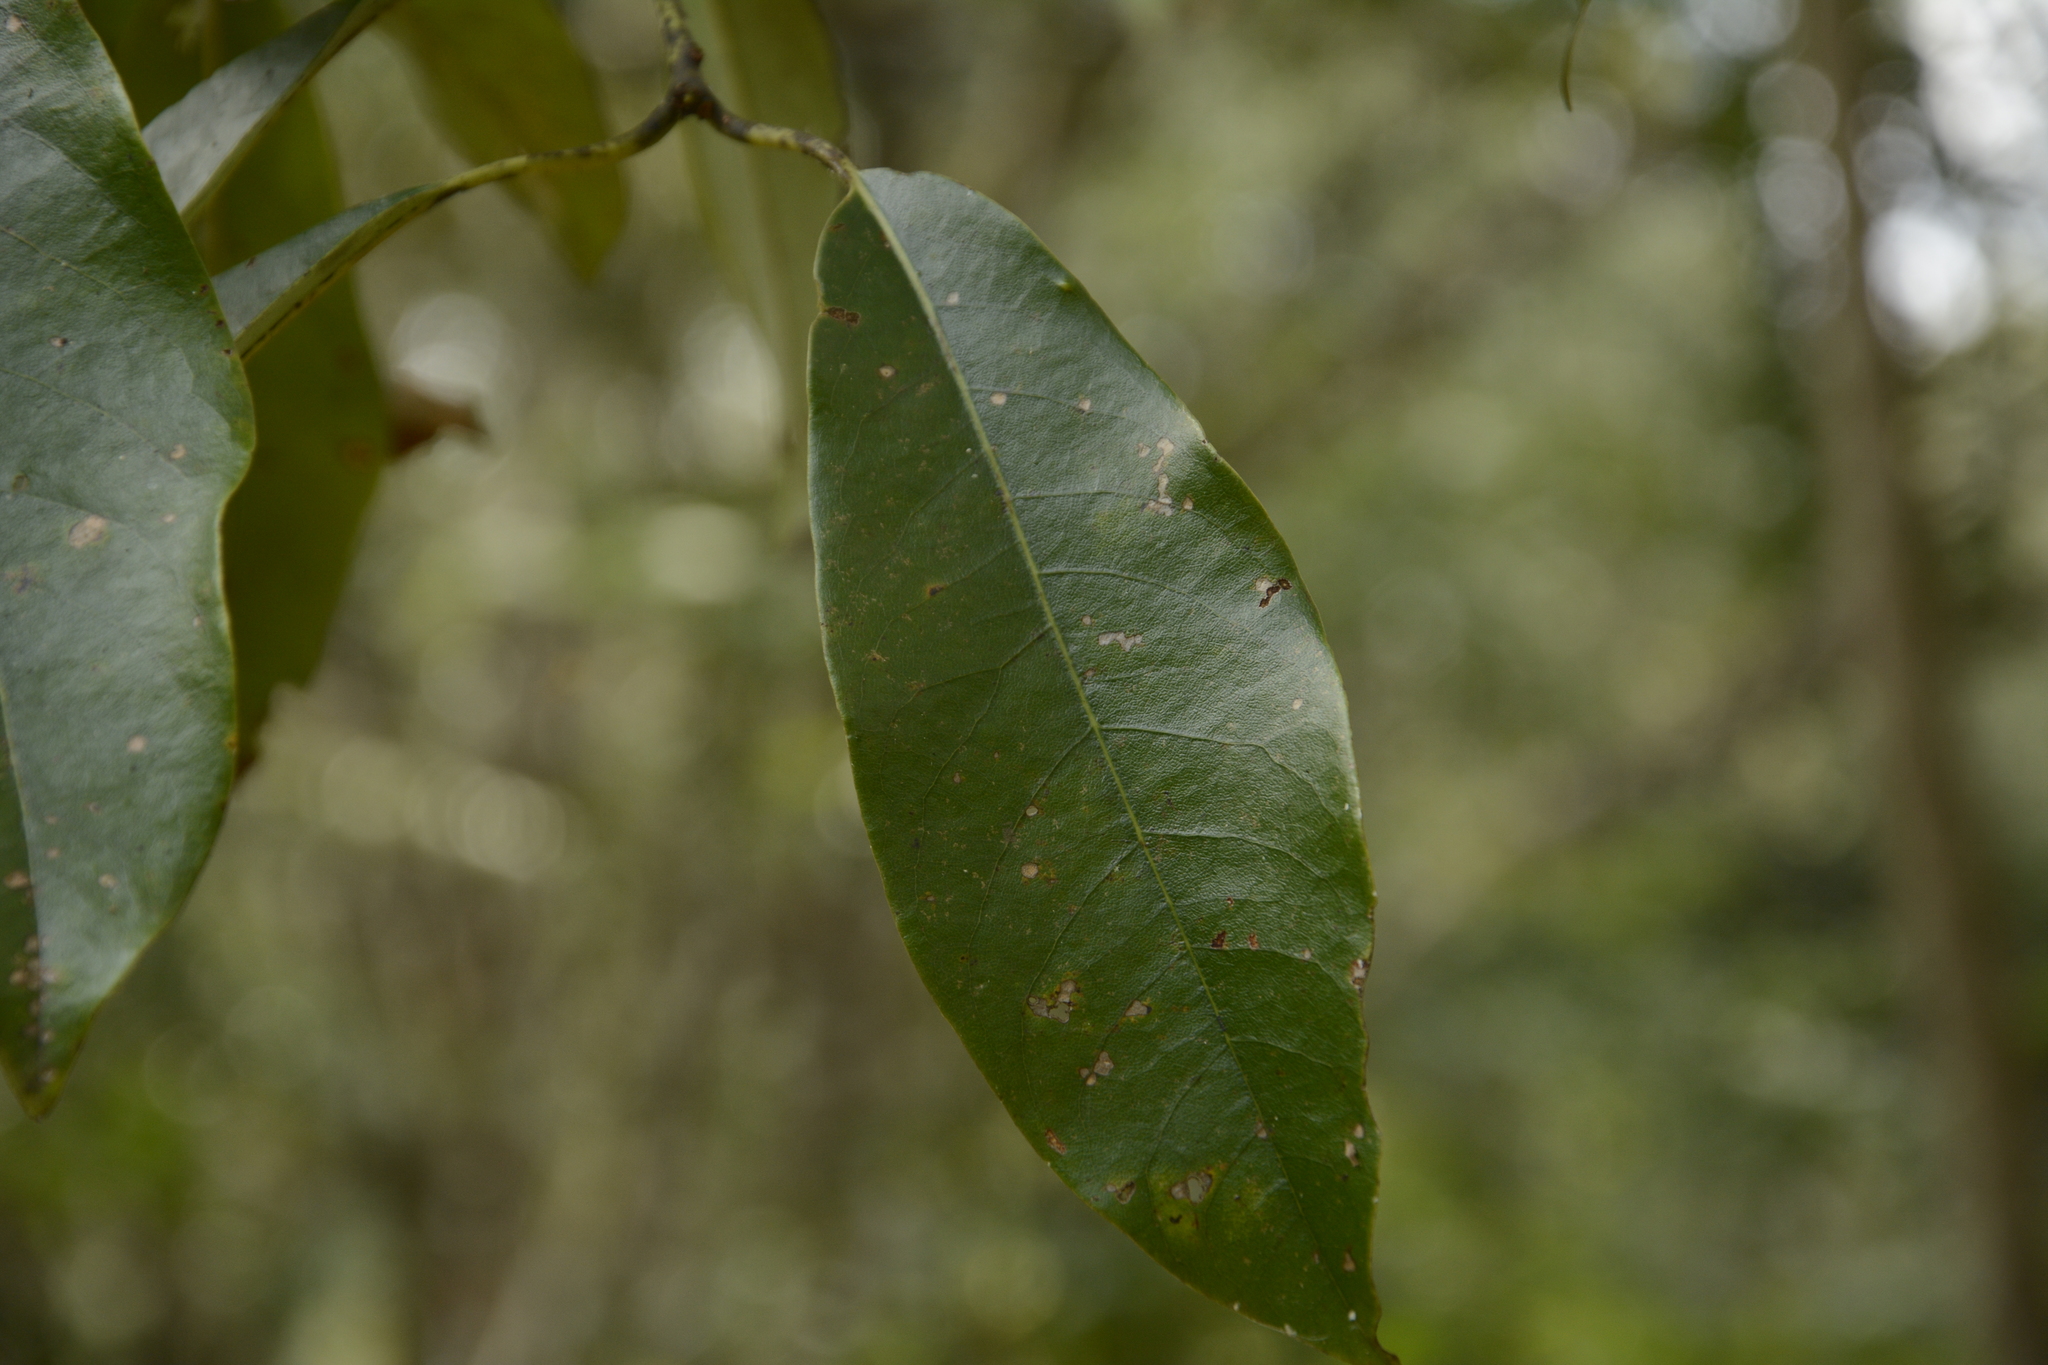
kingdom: Plantae
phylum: Tracheophyta
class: Magnoliopsida
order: Laurales
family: Lauraceae
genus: Machilus
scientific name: Machilus glaucescens
